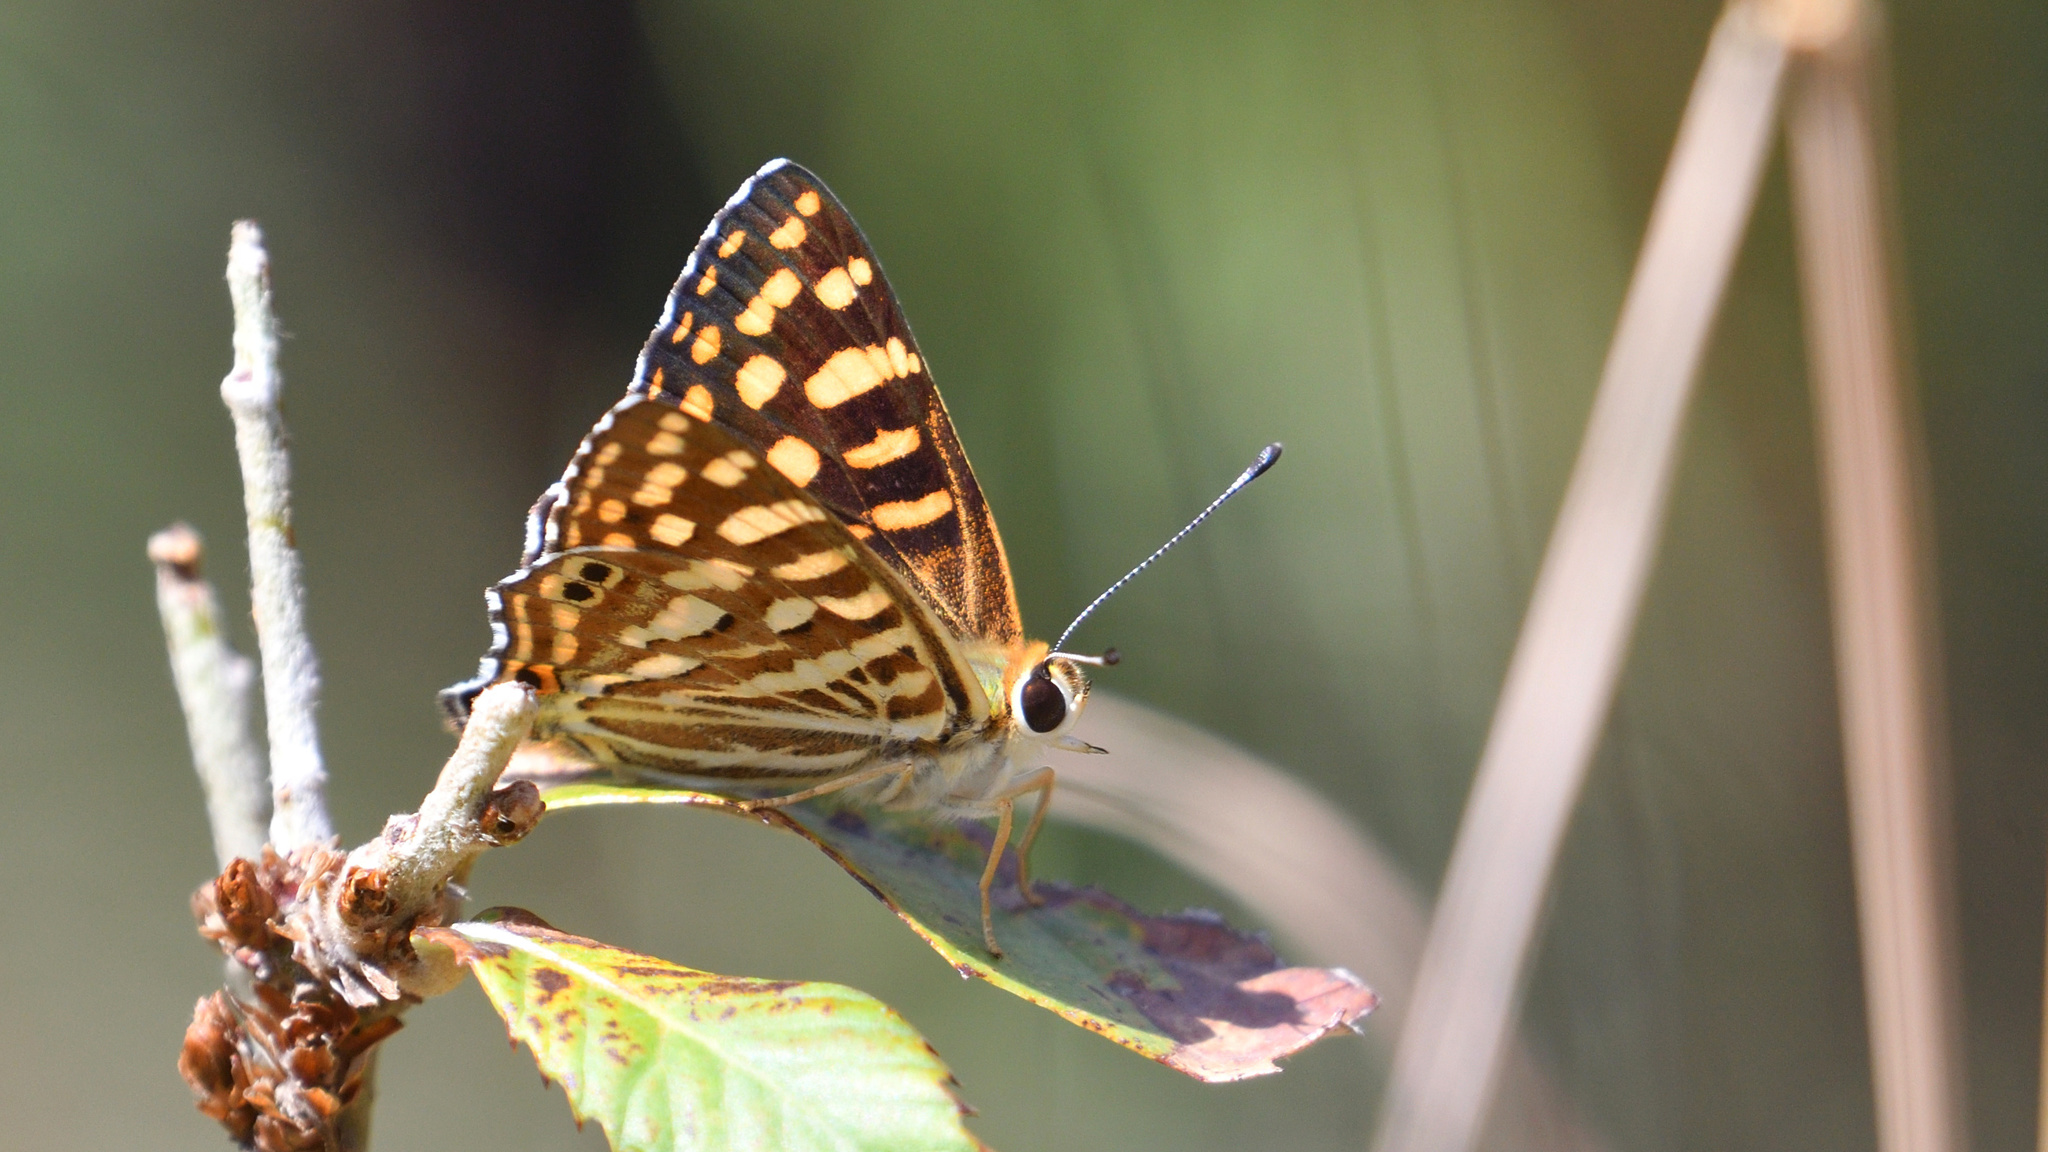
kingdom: Animalia
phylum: Arthropoda
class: Insecta
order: Lepidoptera
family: Lycaenidae
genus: Dodona
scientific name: Dodona durga
